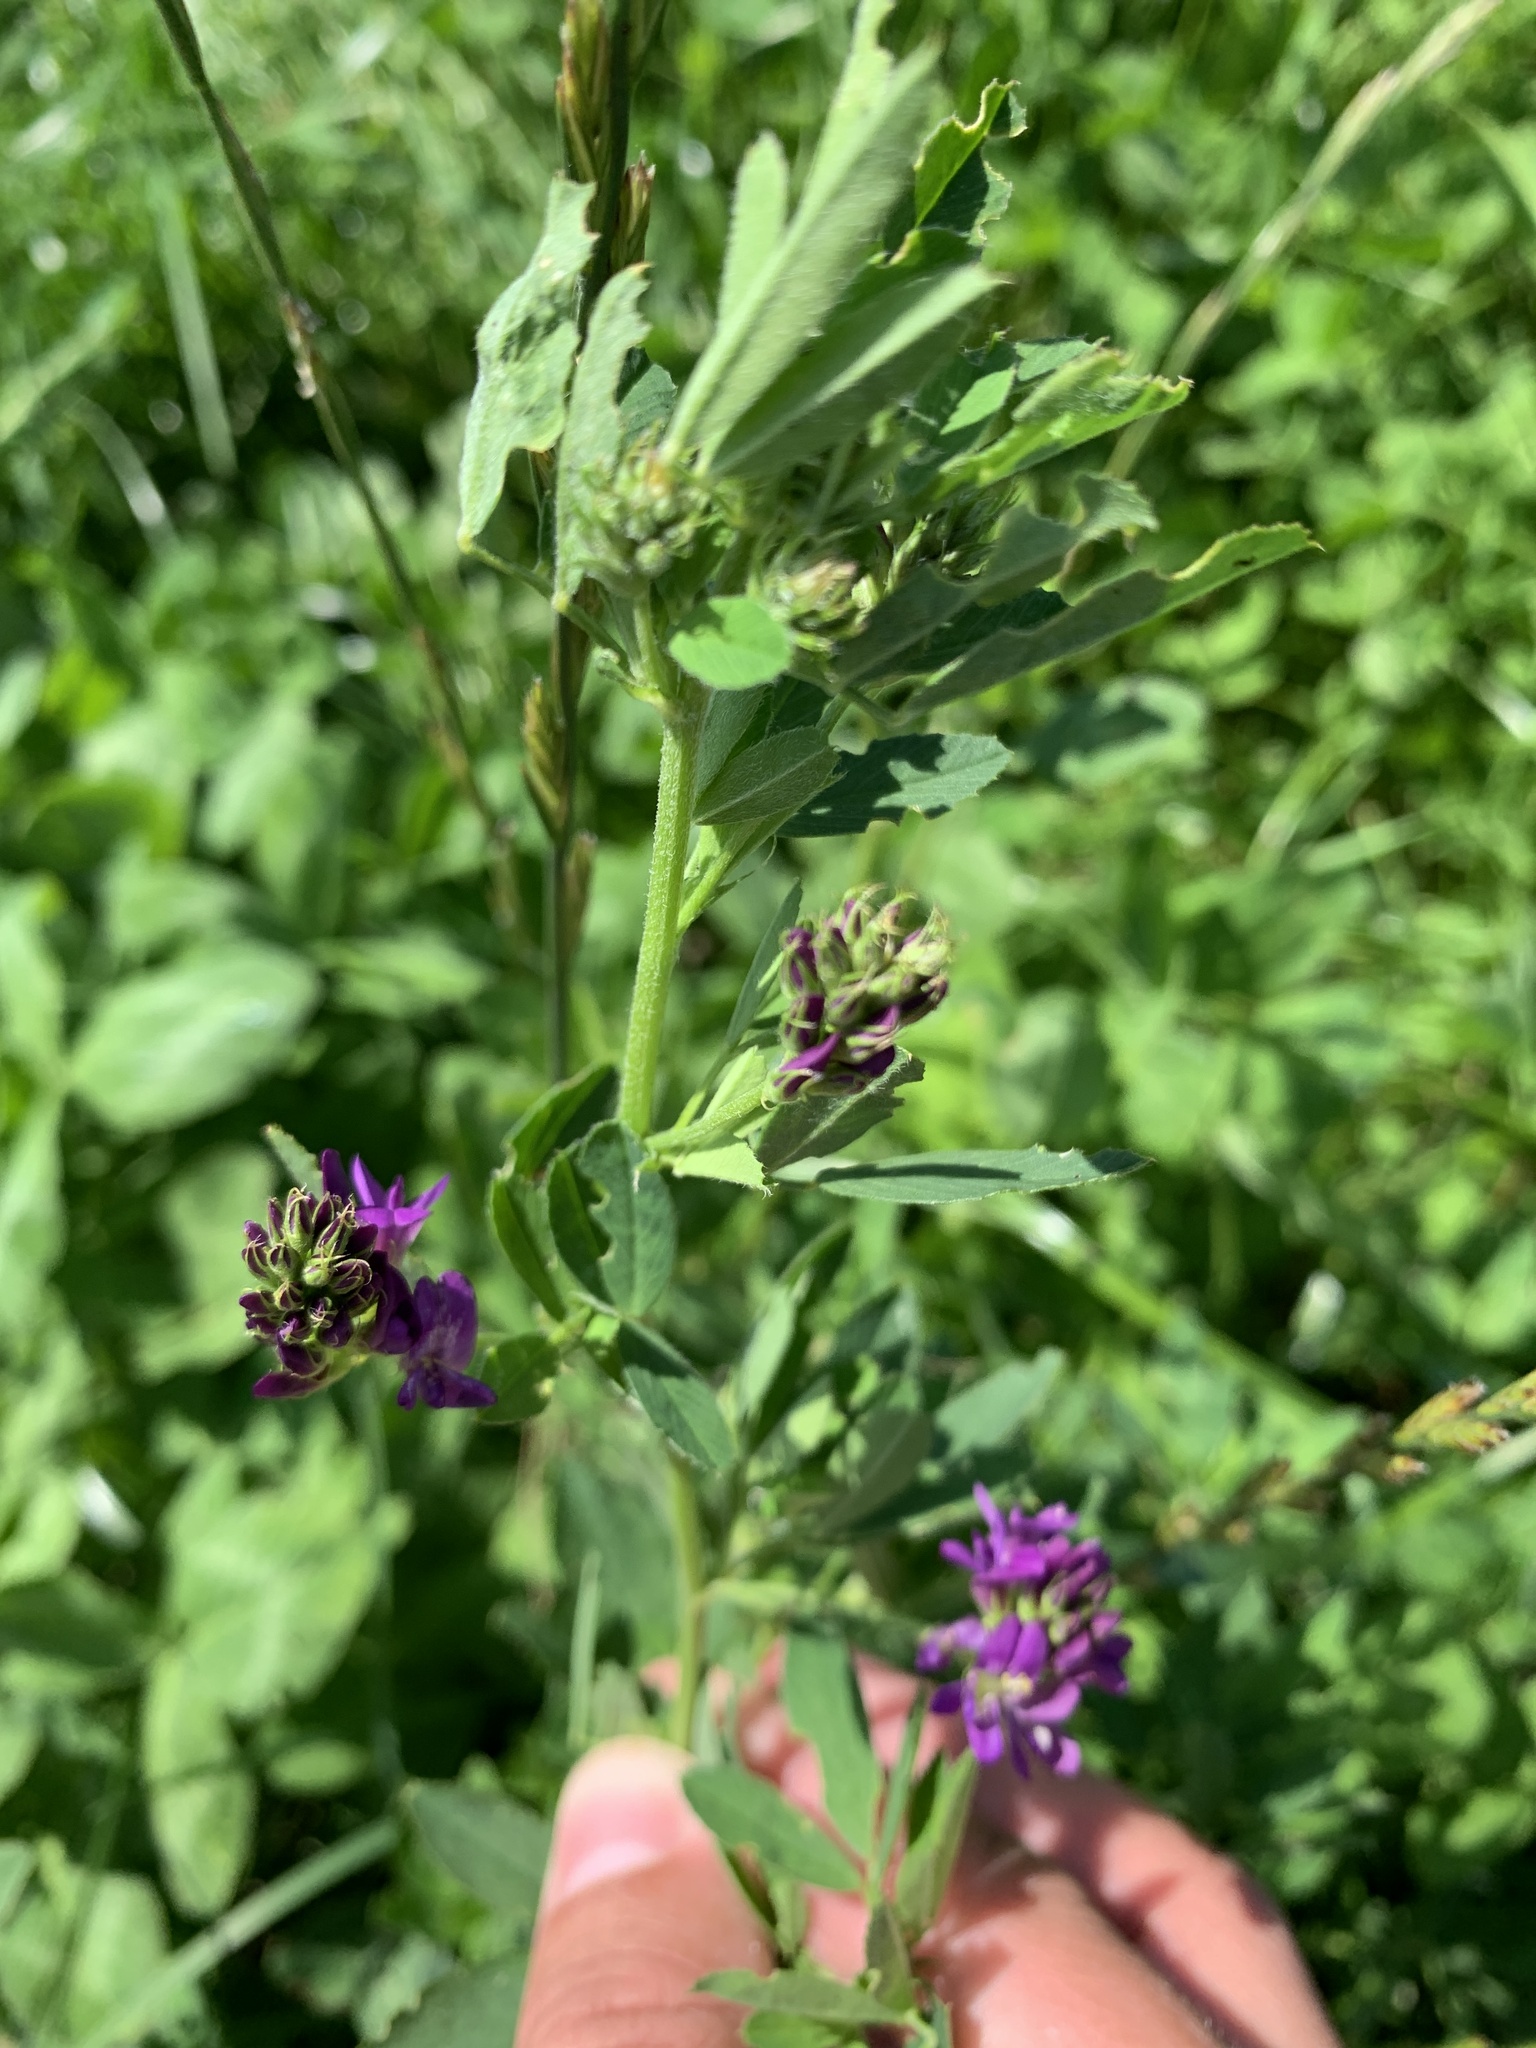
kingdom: Plantae
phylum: Tracheophyta
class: Magnoliopsida
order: Fabales
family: Fabaceae
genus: Medicago
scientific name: Medicago sativa
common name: Alfalfa
